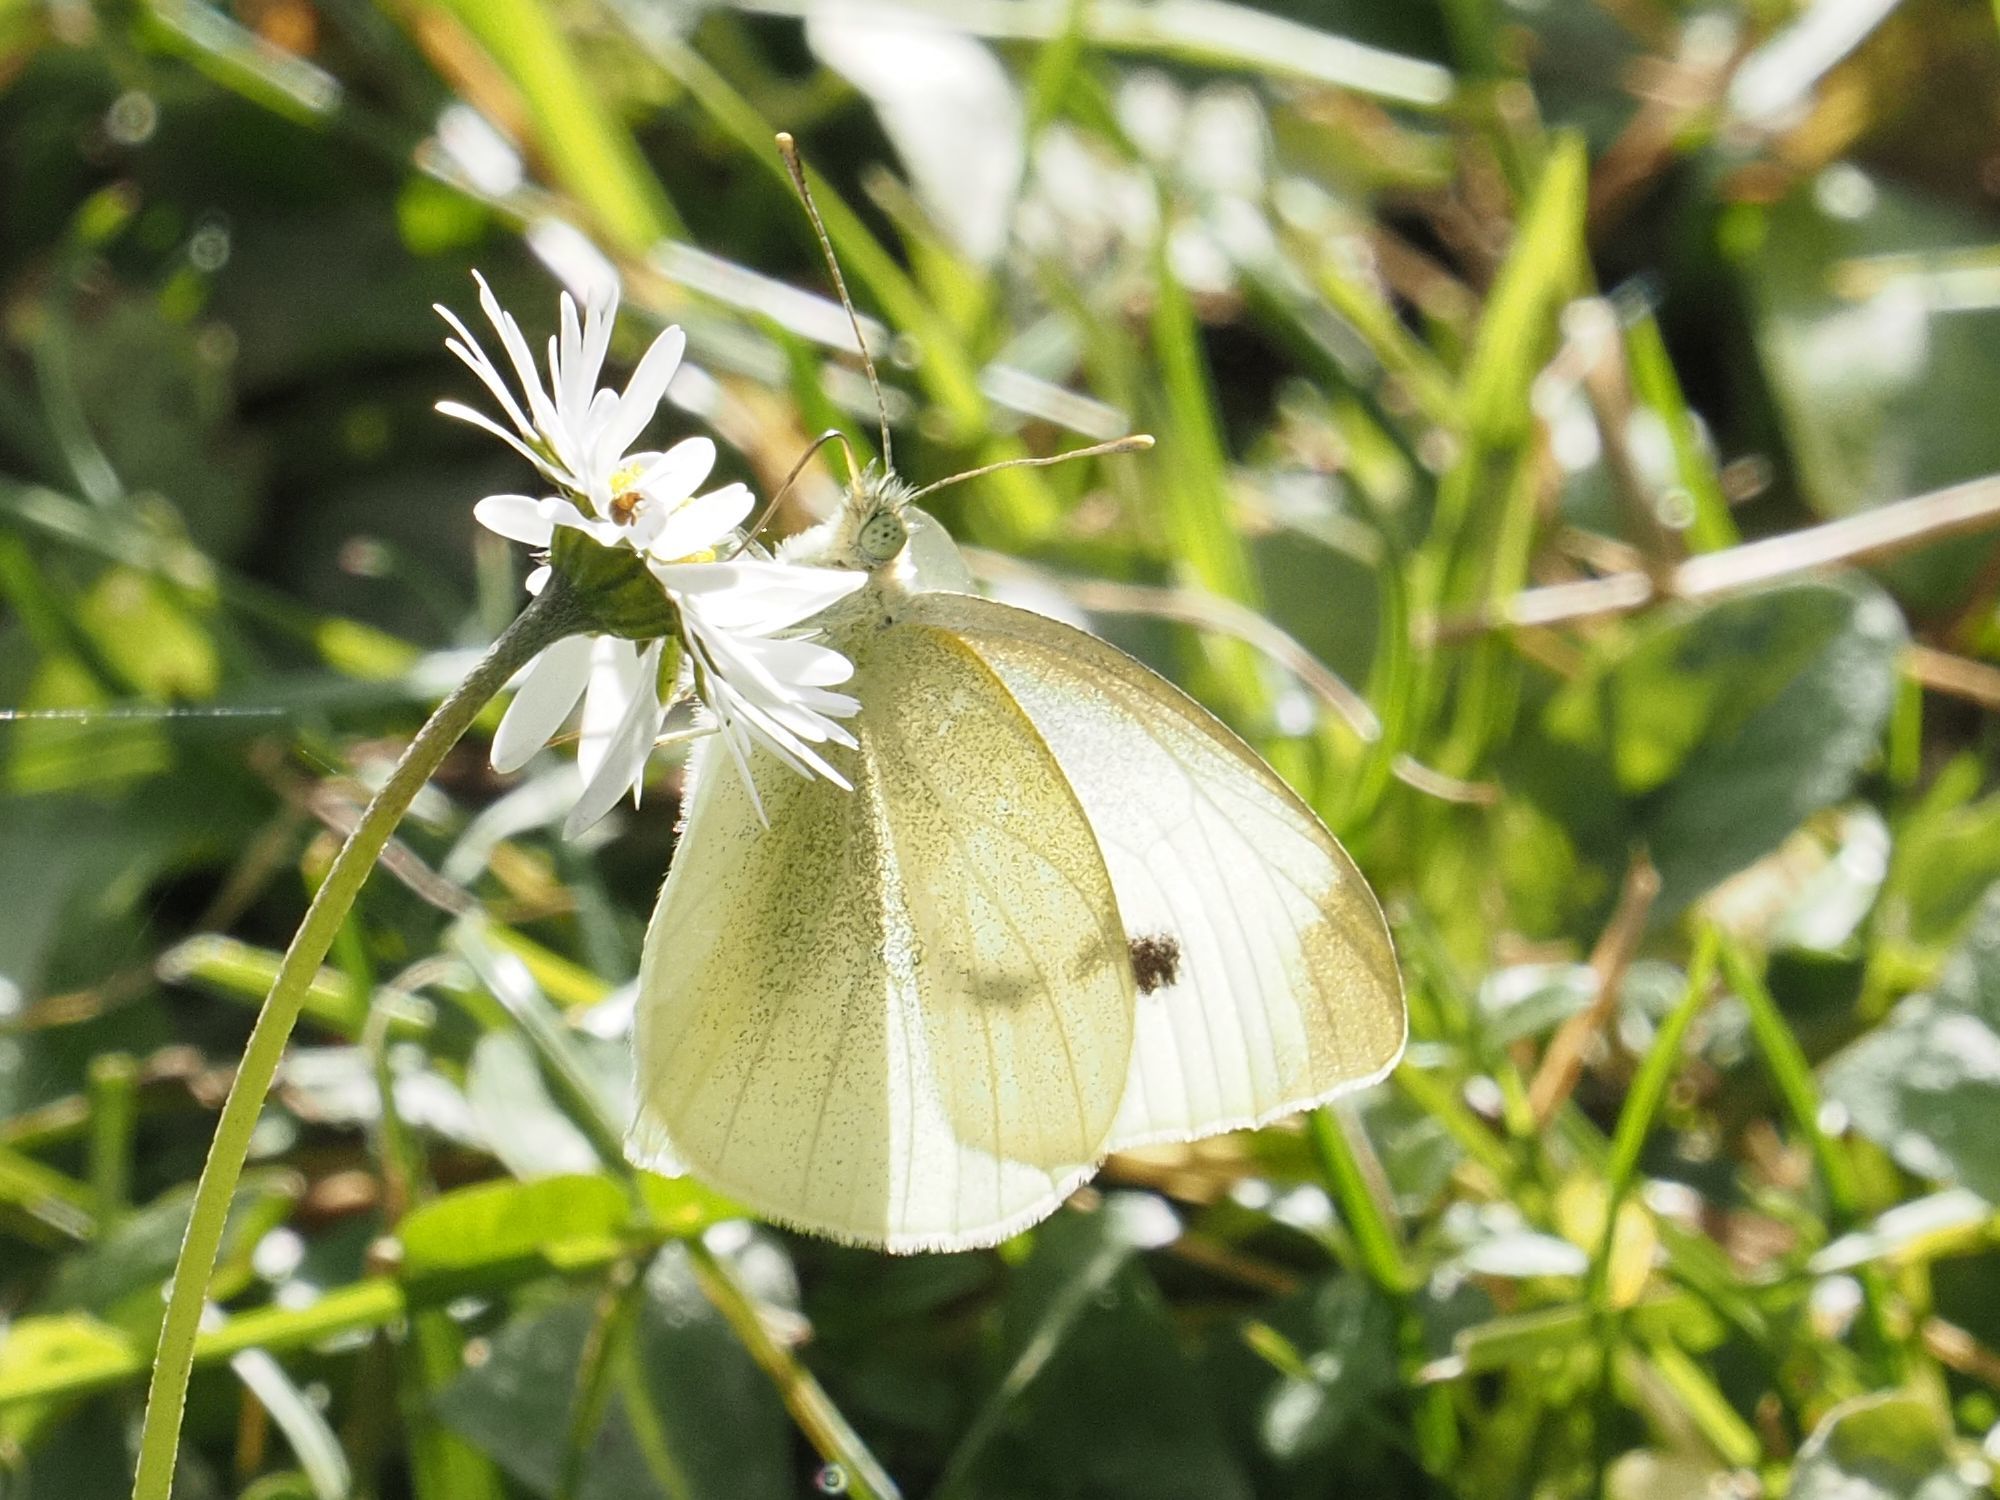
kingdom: Animalia
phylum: Arthropoda
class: Insecta
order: Lepidoptera
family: Pieridae
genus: Pieris
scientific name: Pieris rapae
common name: Small white
